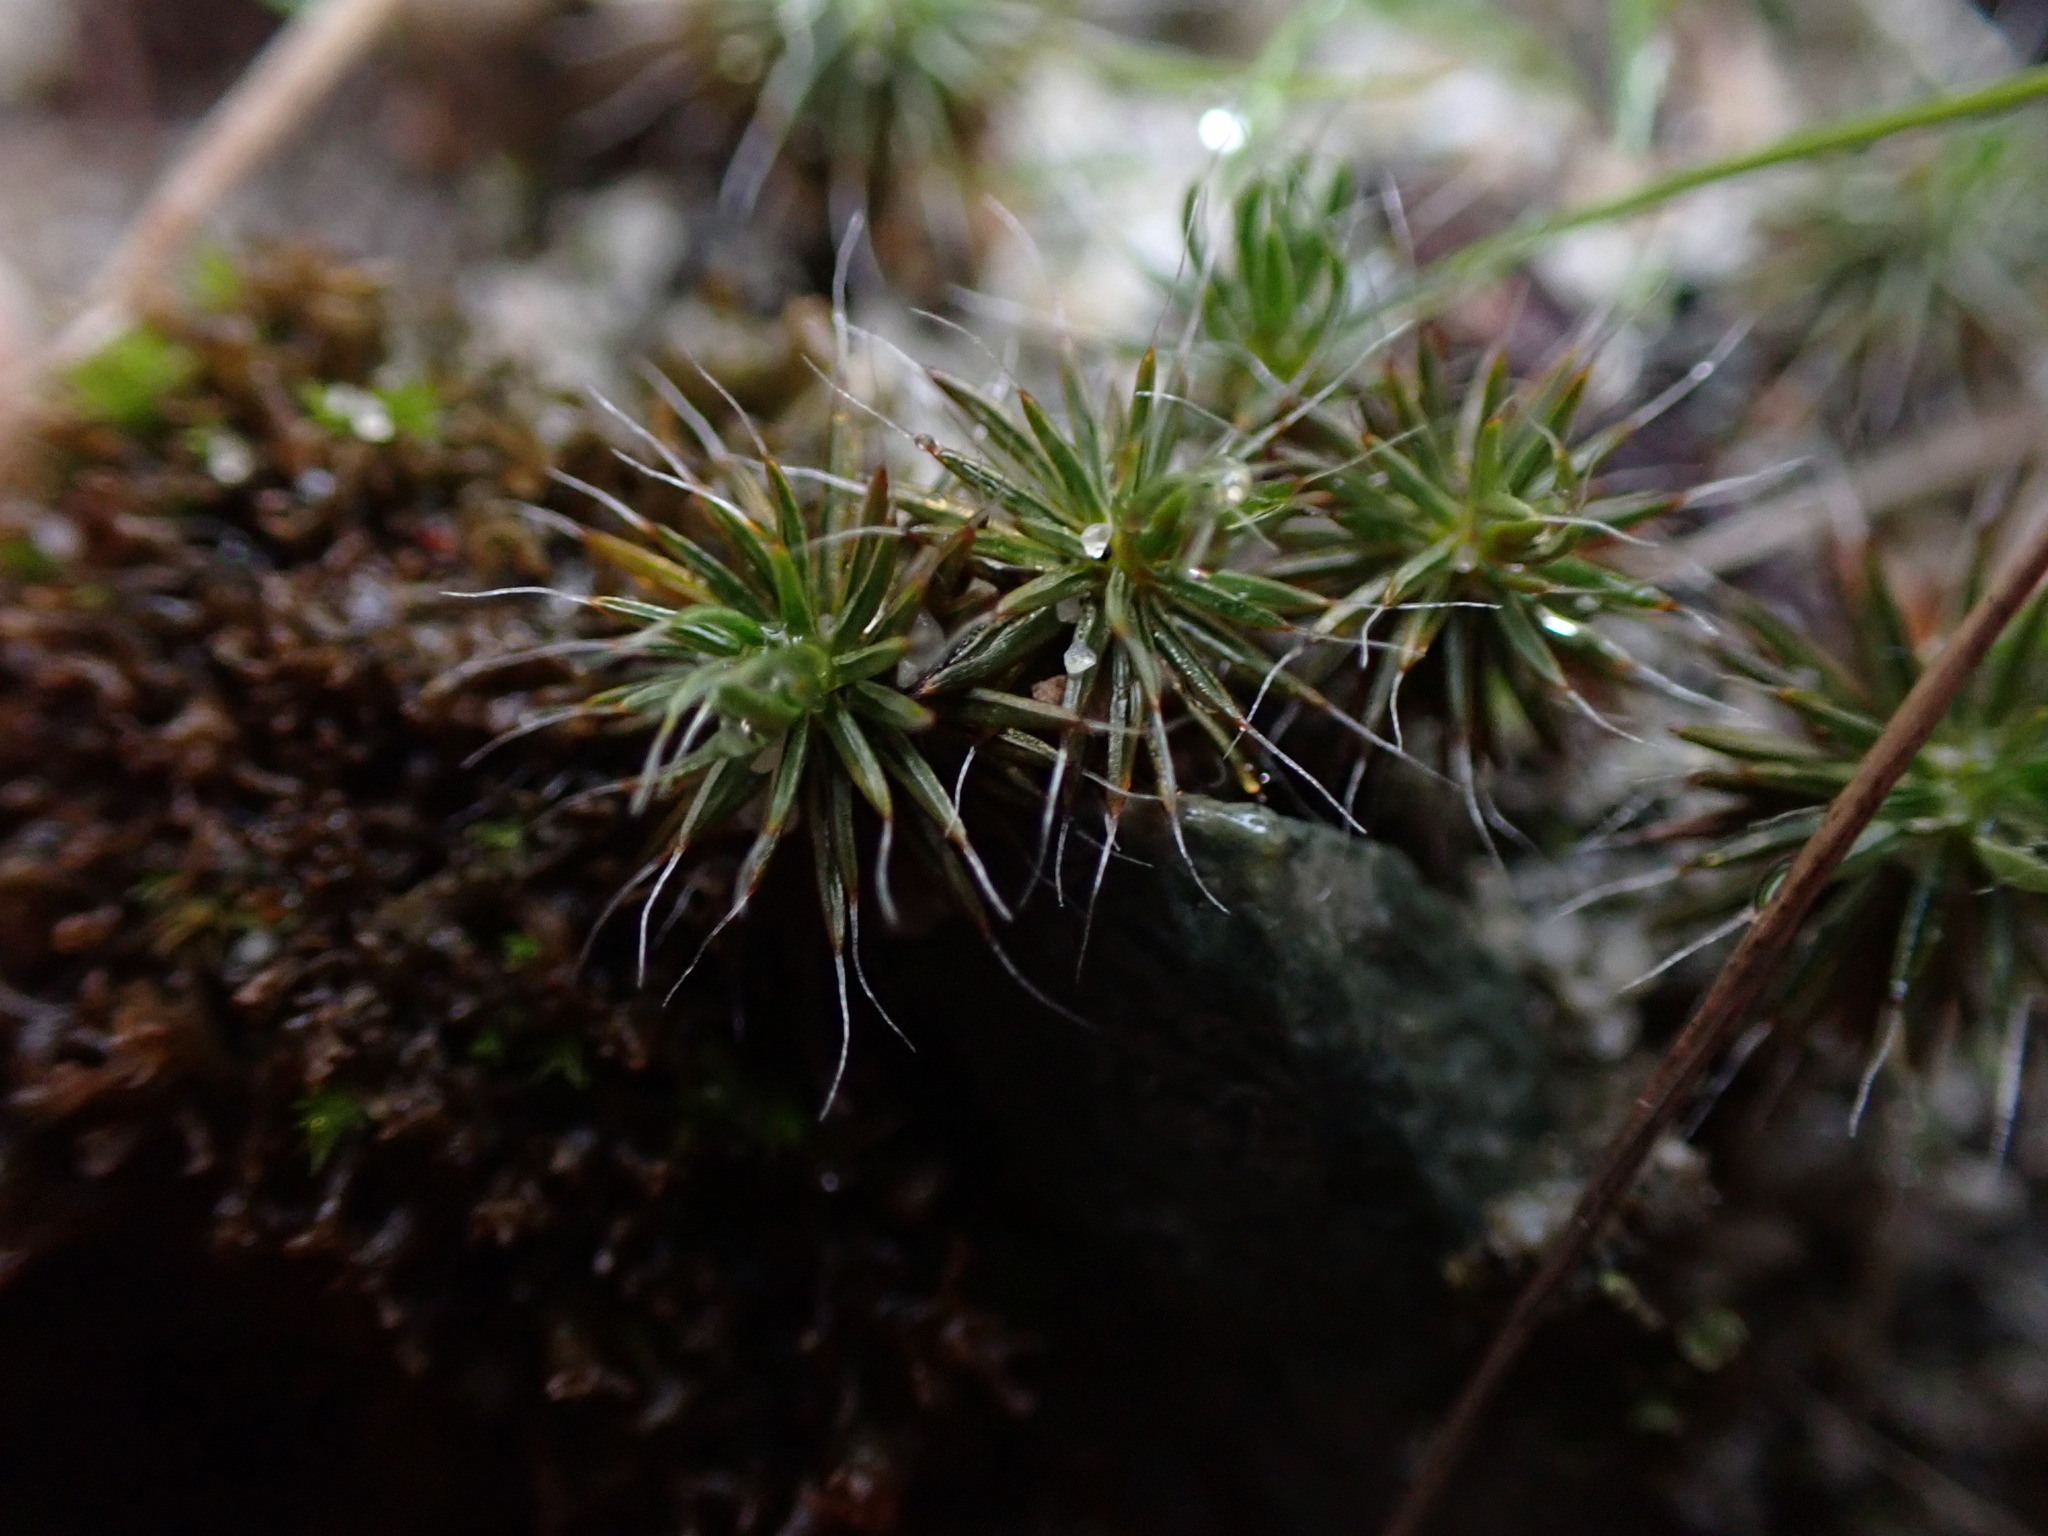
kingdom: Plantae
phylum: Bryophyta
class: Polytrichopsida
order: Polytrichales
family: Polytrichaceae
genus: Polytrichum
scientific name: Polytrichum piliferum
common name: Bristly haircap
